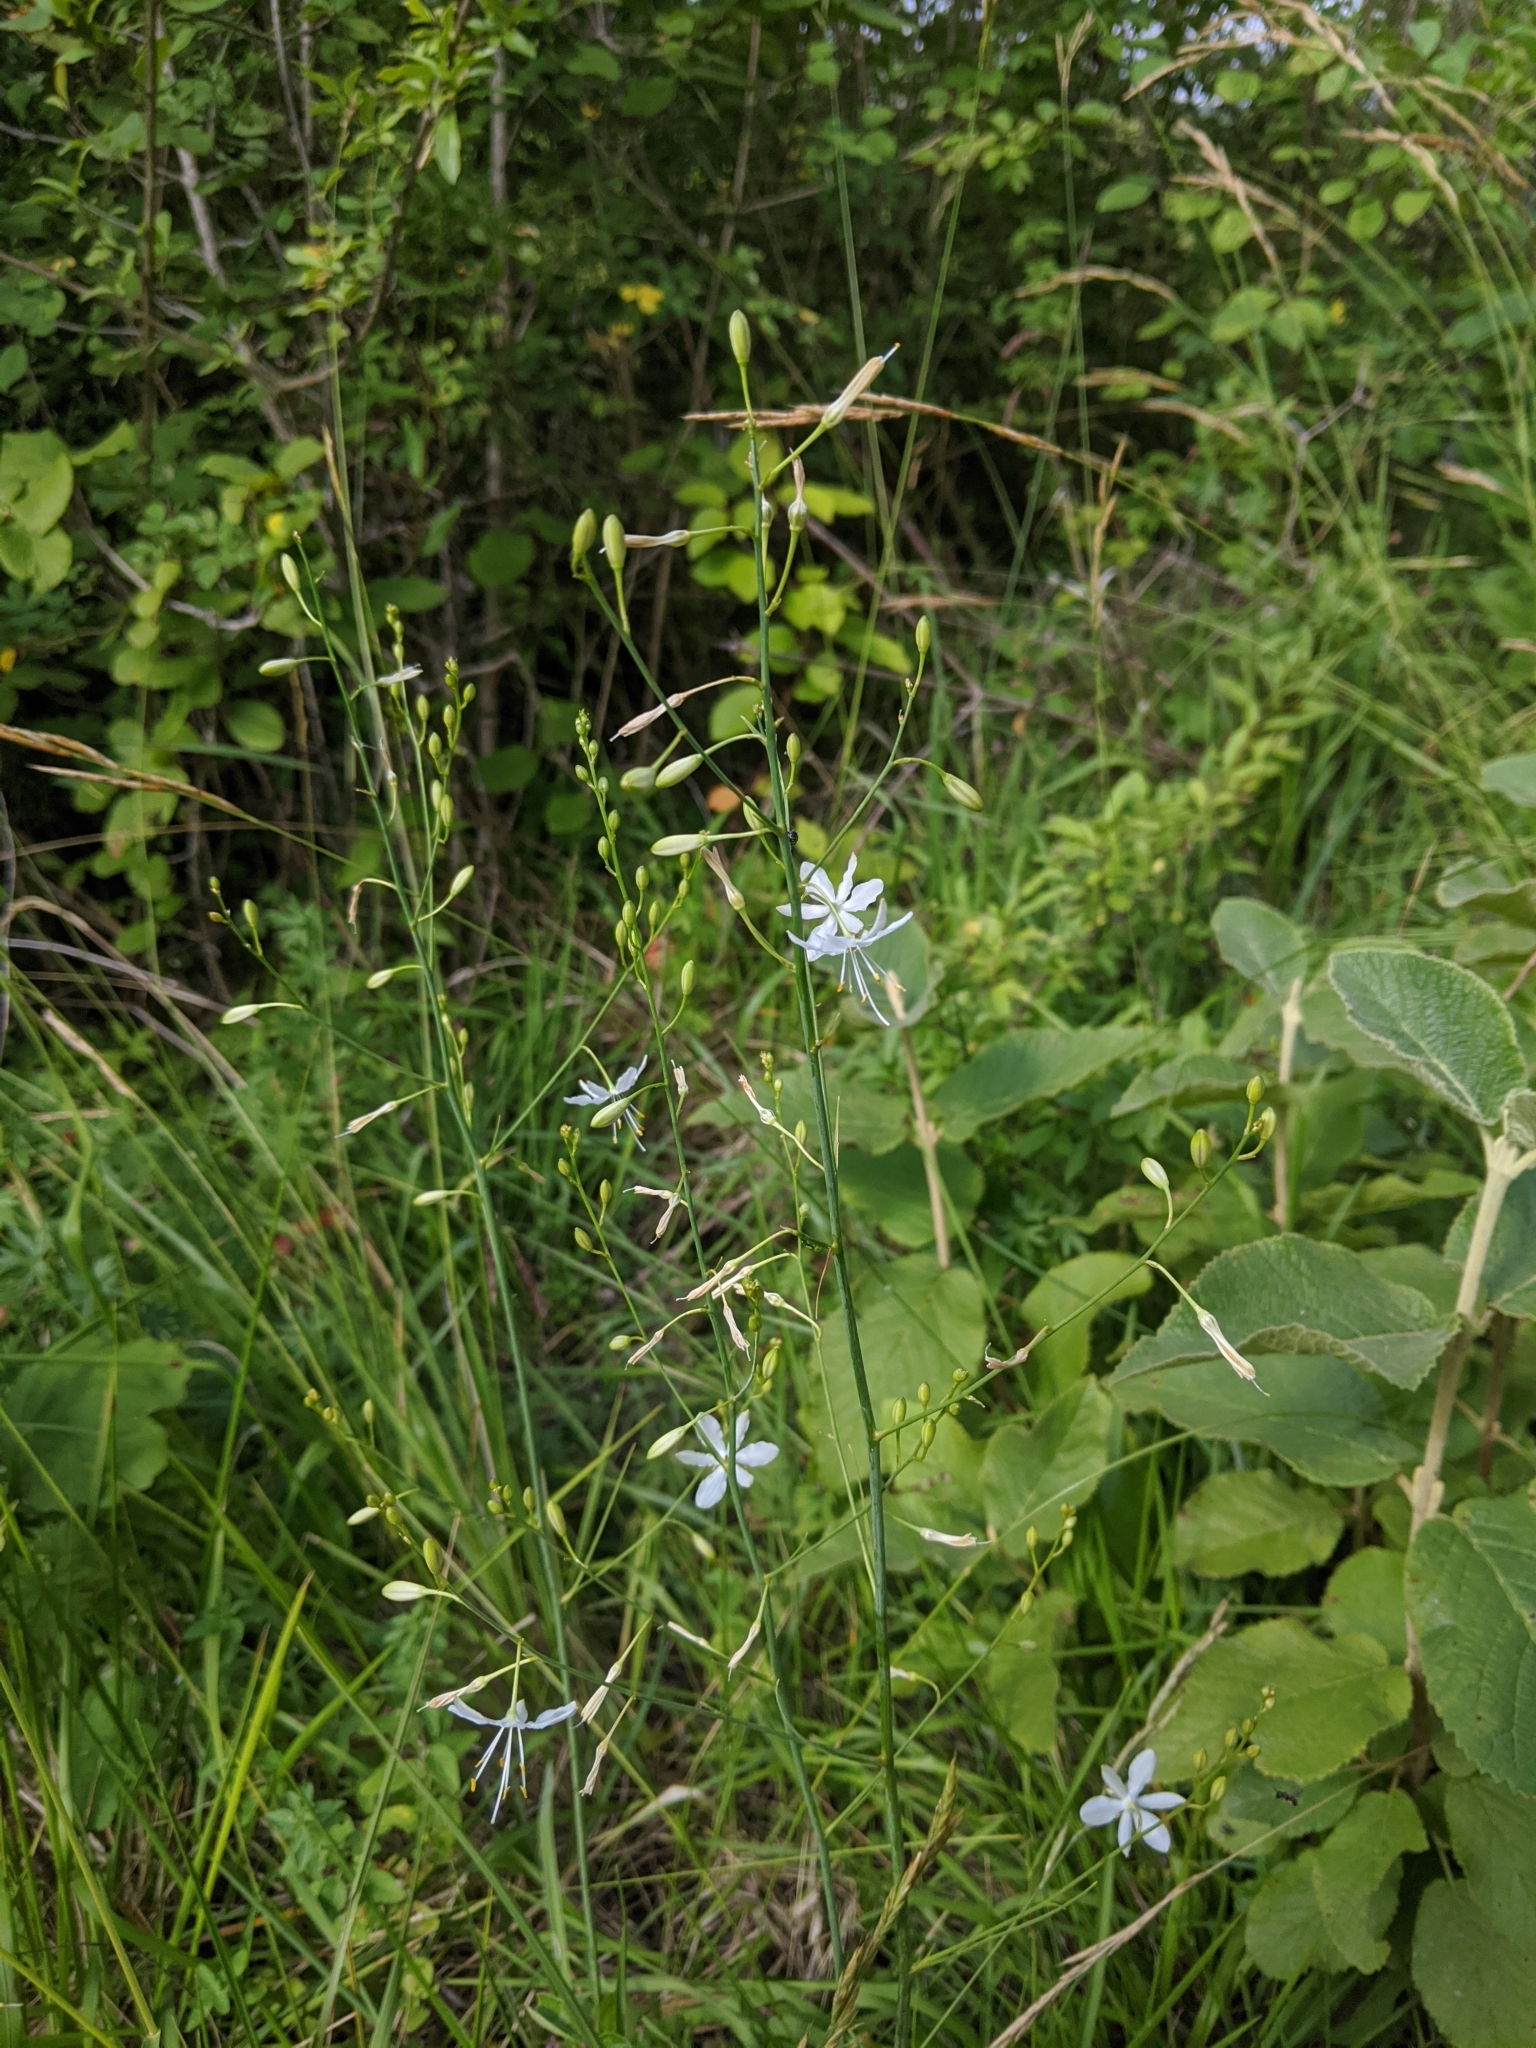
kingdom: Plantae
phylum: Tracheophyta
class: Liliopsida
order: Asparagales
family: Asparagaceae
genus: Anthericum
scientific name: Anthericum ramosum
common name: Branched st. bernard's-lily
